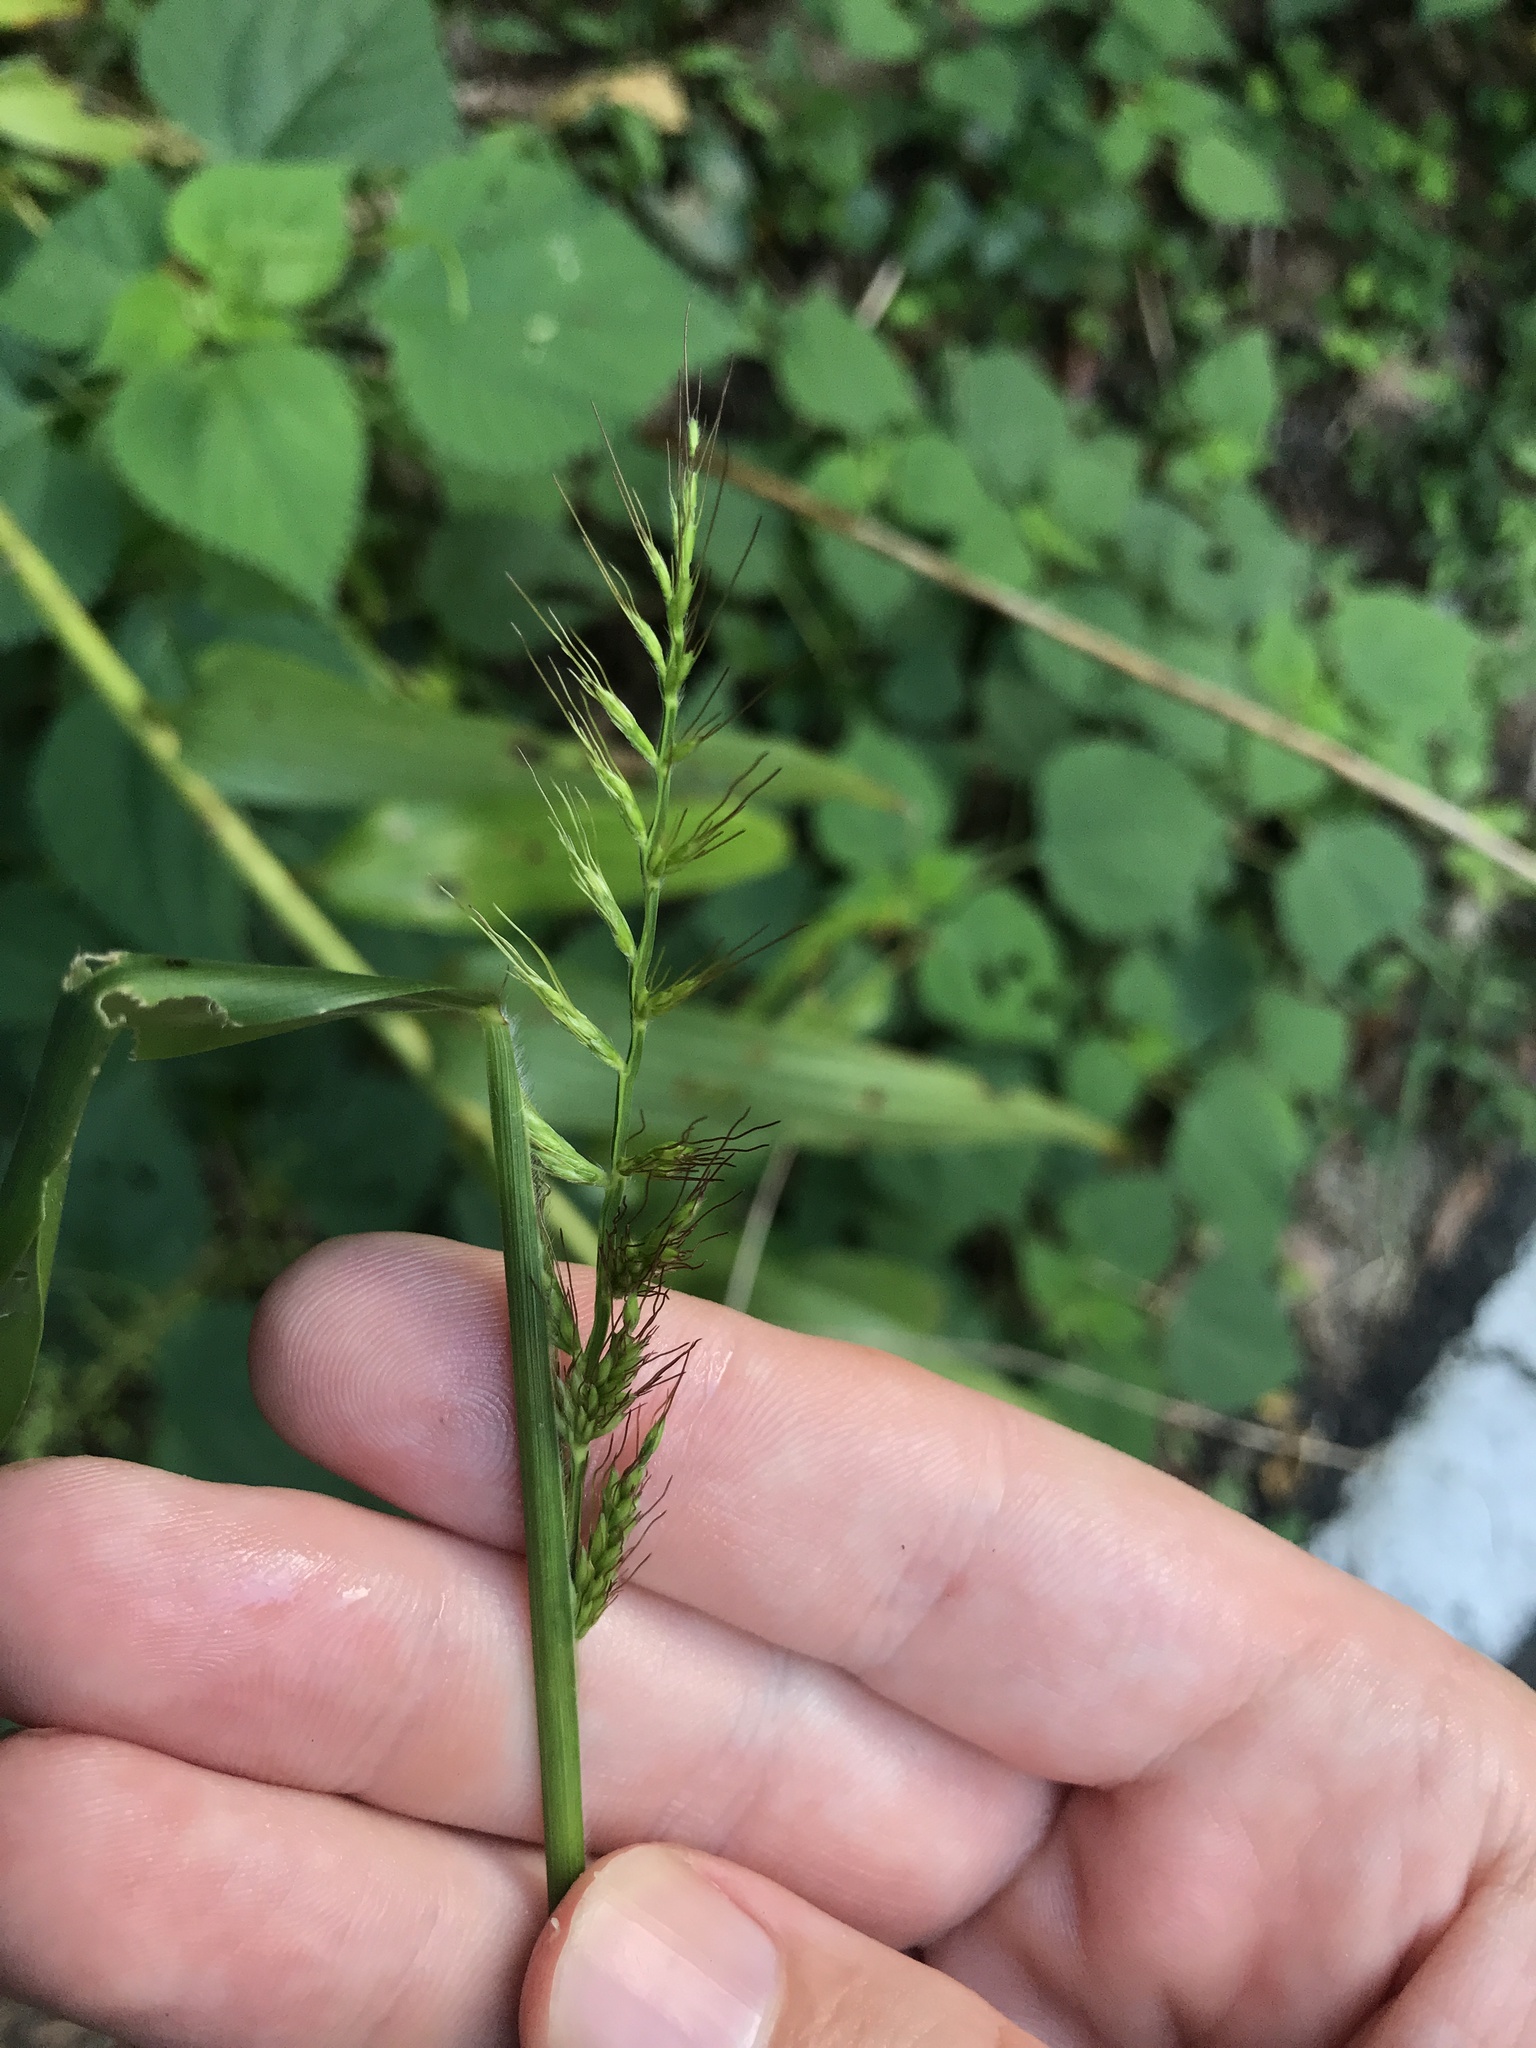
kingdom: Plantae
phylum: Tracheophyta
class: Liliopsida
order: Poales
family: Poaceae
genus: Oplismenus
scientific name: Oplismenus undulatifolius
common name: Wavyleaf basketgrass
